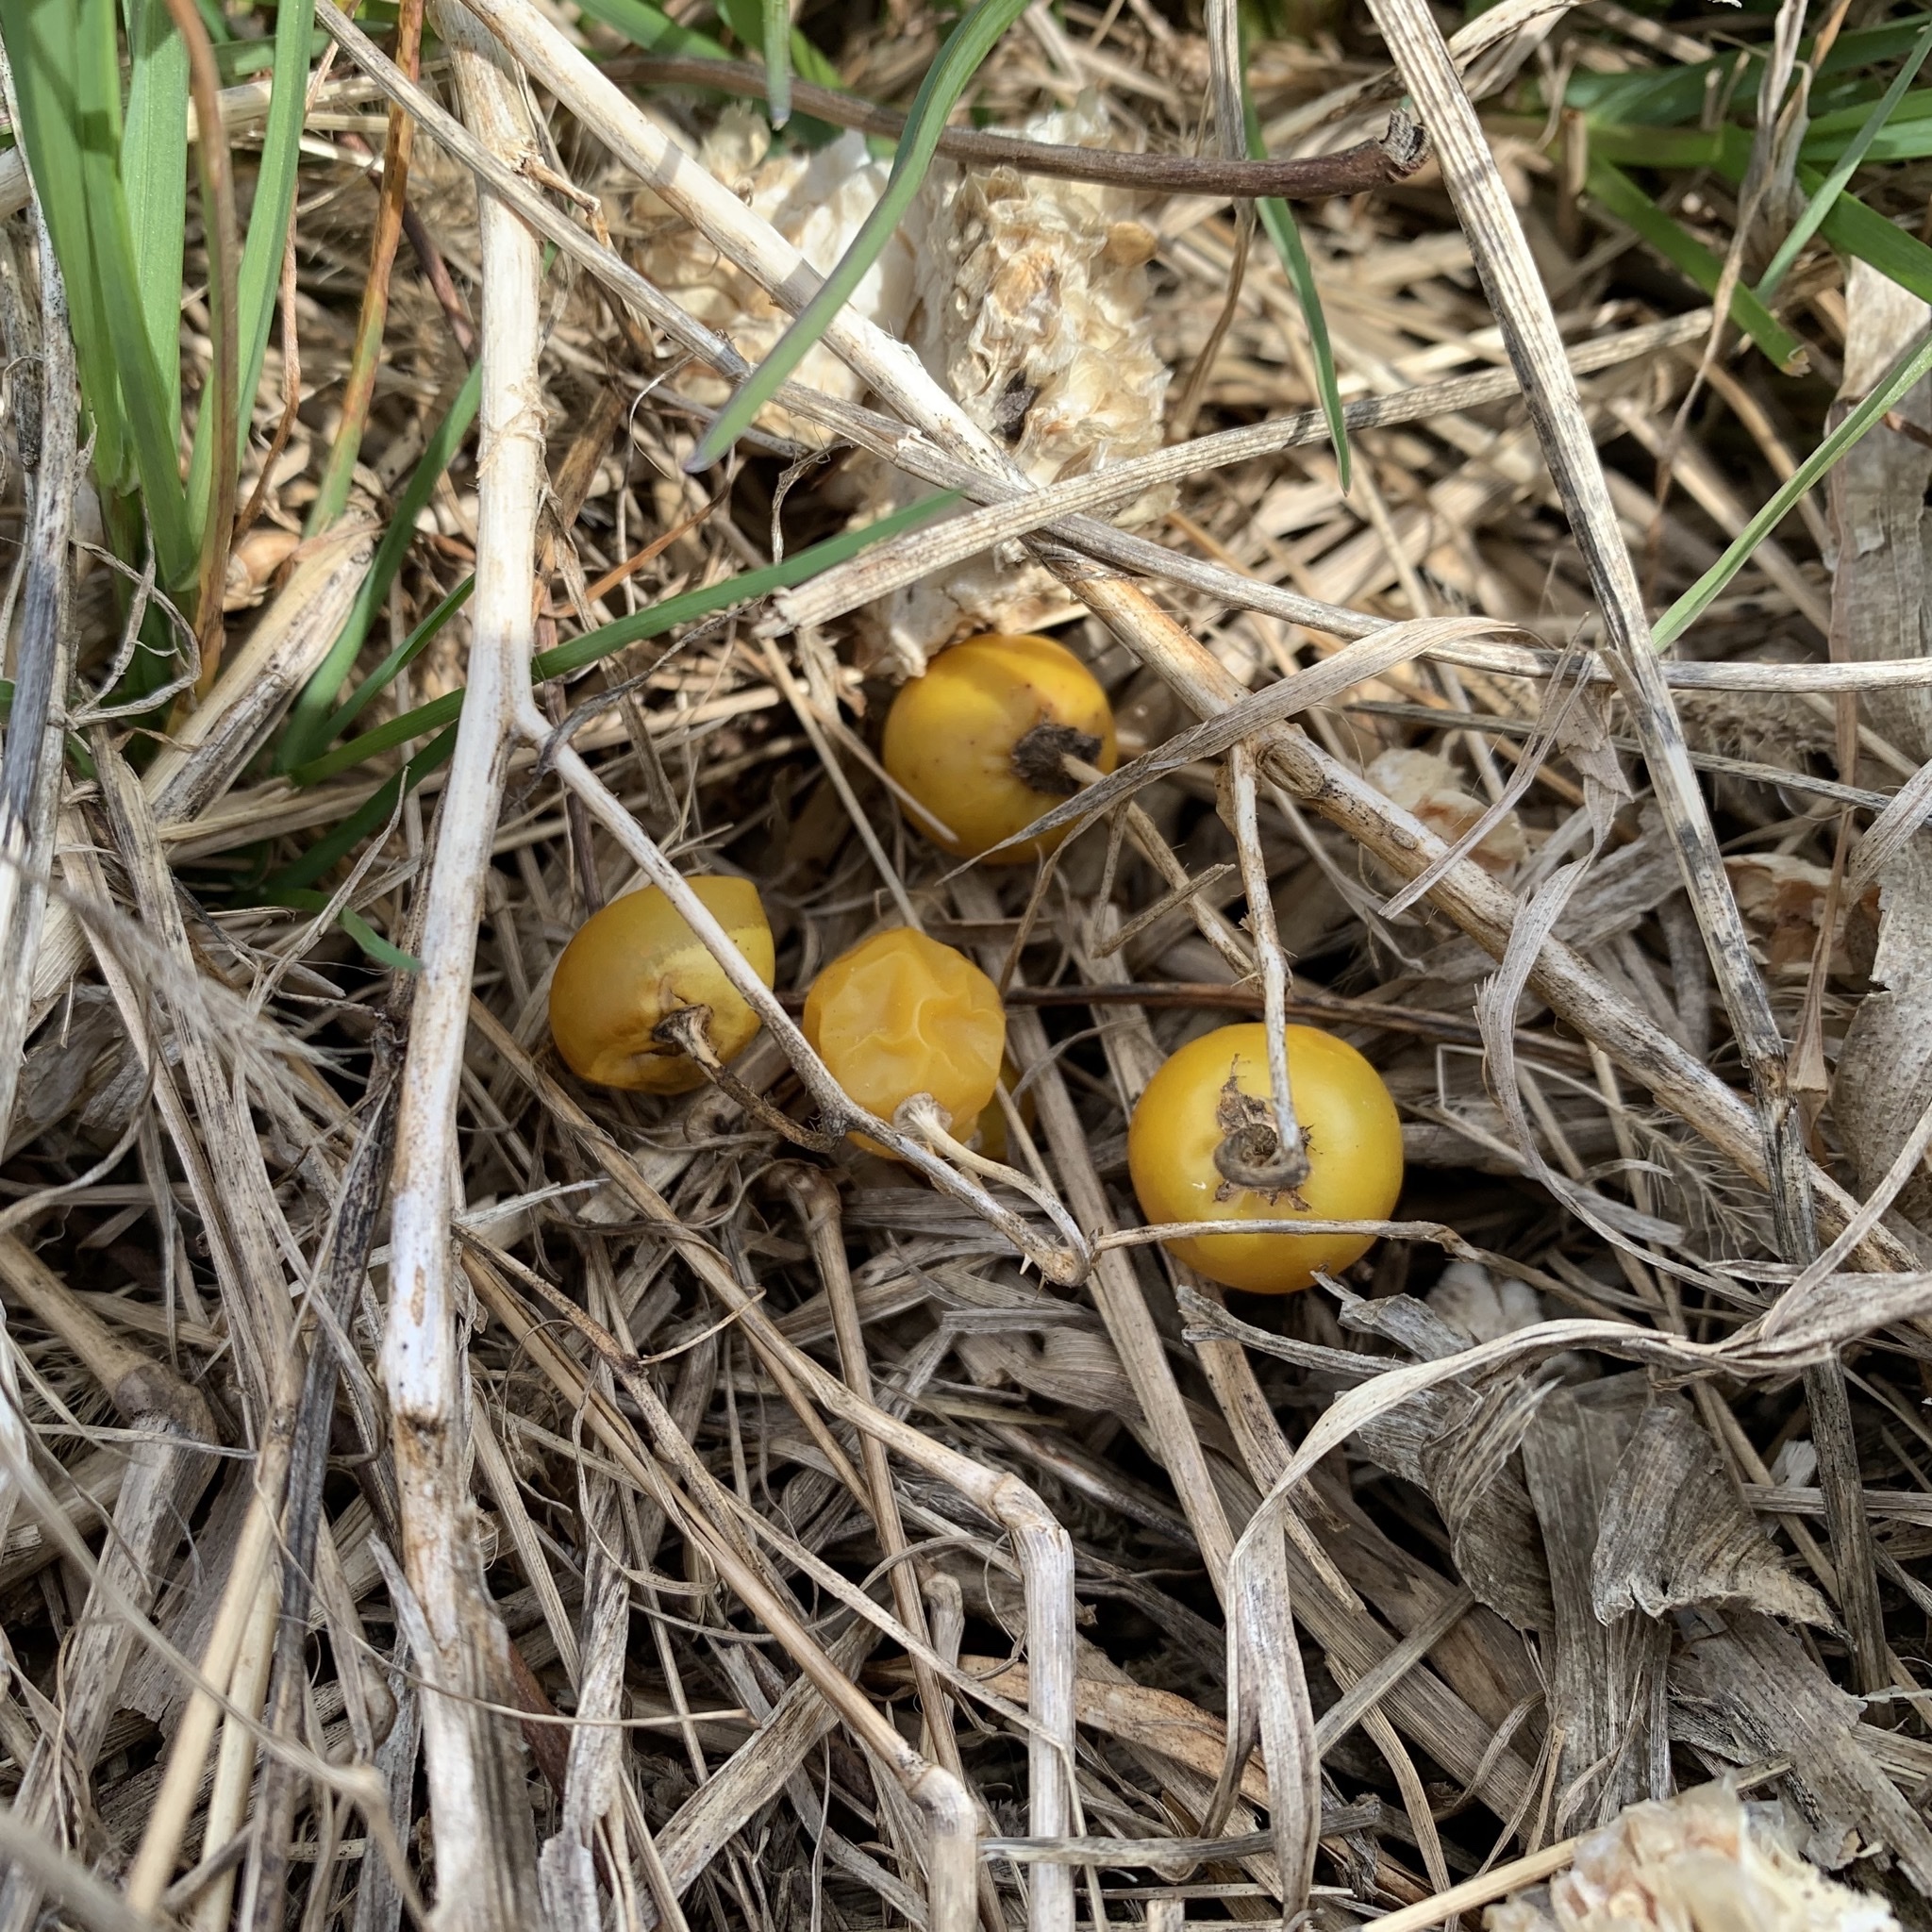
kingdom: Plantae
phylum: Tracheophyta
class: Magnoliopsida
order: Solanales
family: Solanaceae
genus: Solanum
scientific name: Solanum carolinense
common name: Horse-nettle
